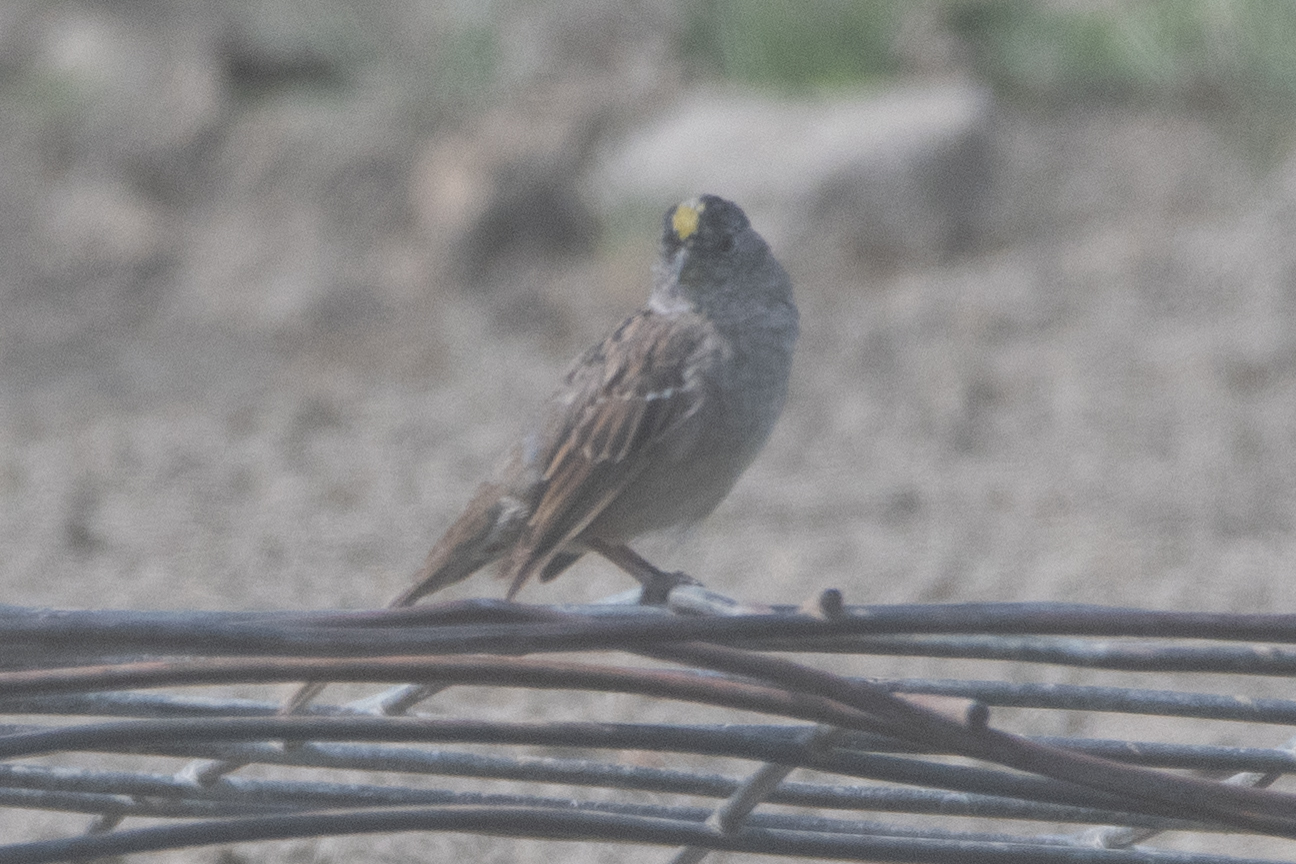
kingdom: Animalia
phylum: Chordata
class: Aves
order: Passeriformes
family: Passerellidae
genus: Zonotrichia
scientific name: Zonotrichia atricapilla
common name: Golden-crowned sparrow
